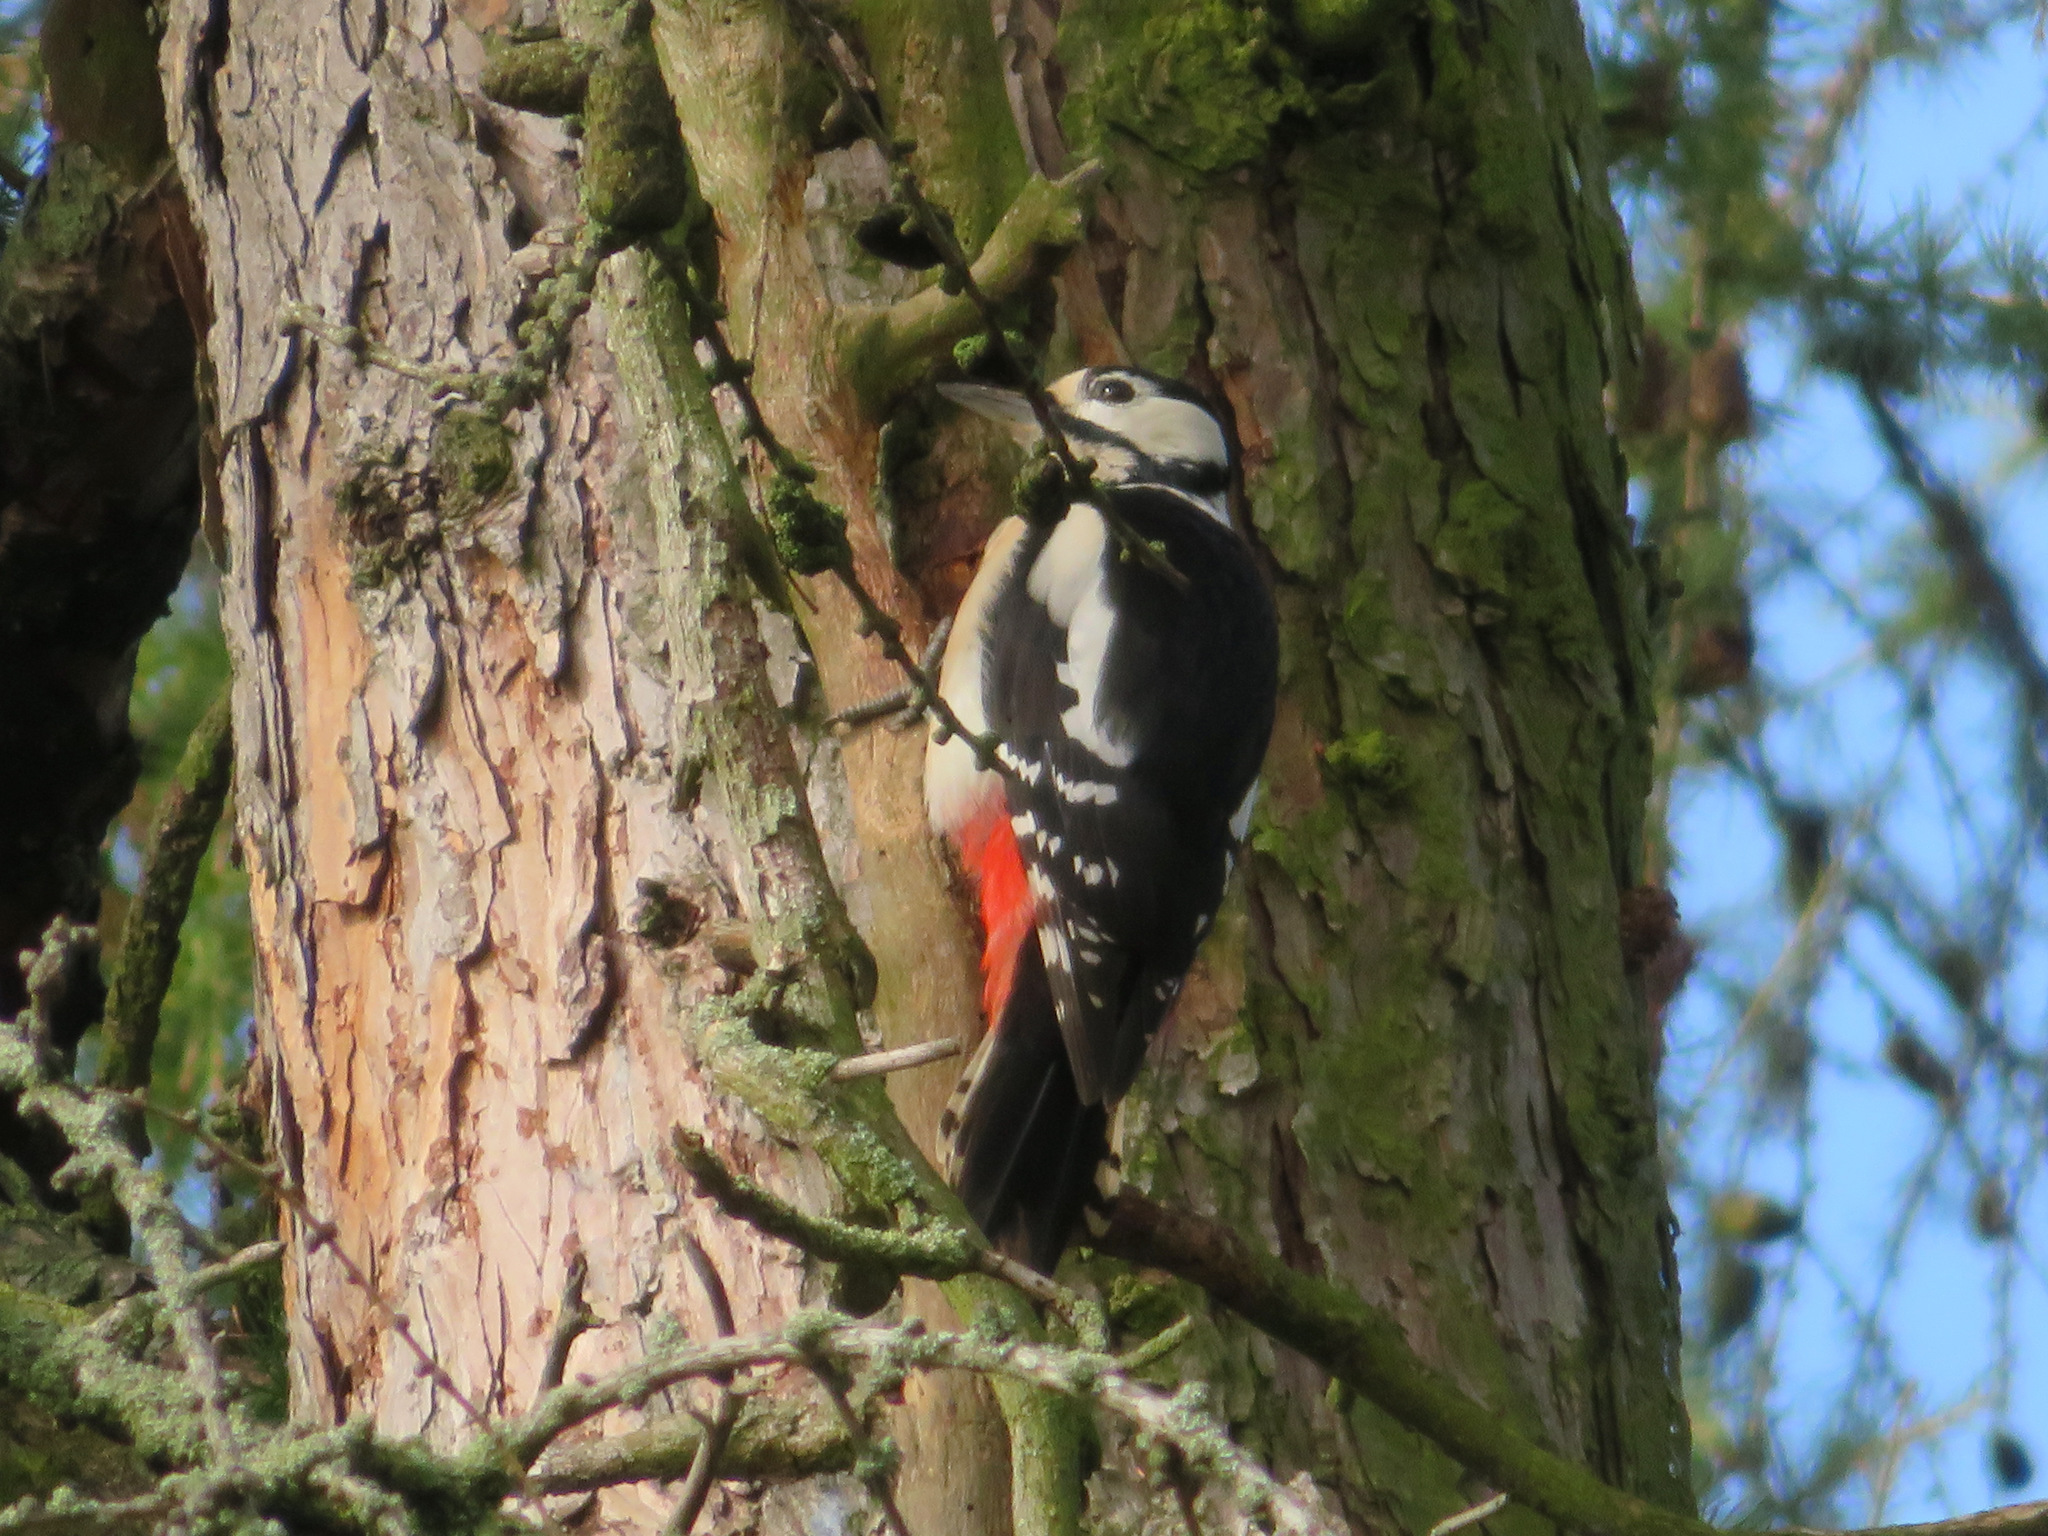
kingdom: Animalia
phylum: Chordata
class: Aves
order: Piciformes
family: Picidae
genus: Dendrocopos
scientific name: Dendrocopos major
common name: Great spotted woodpecker
